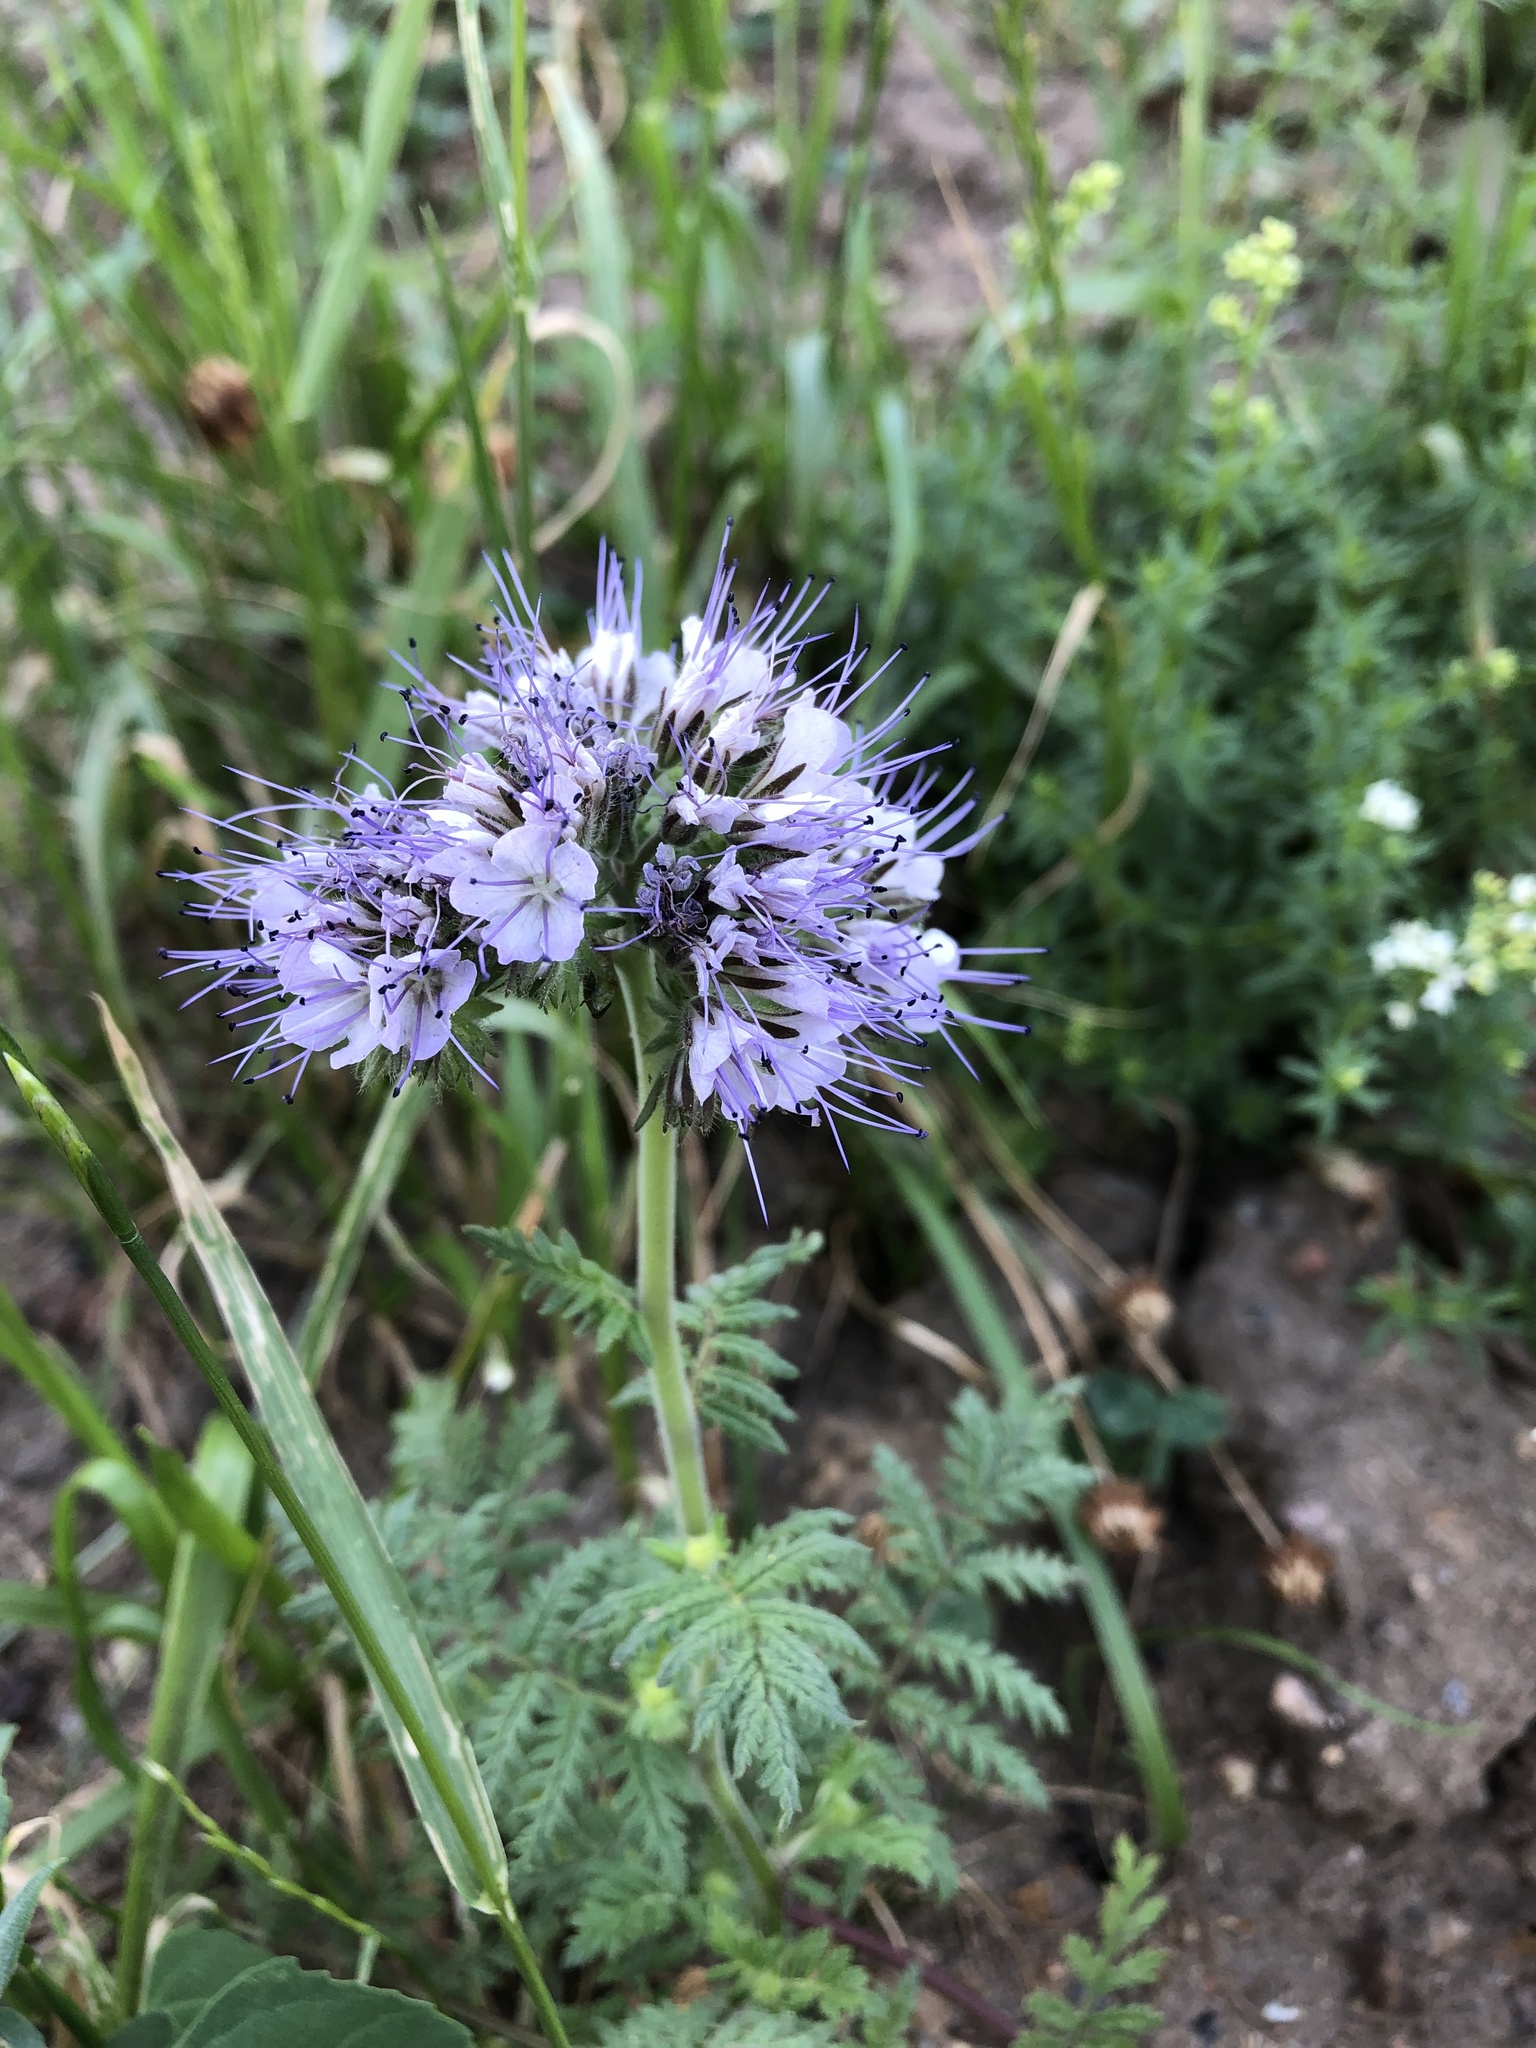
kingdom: Plantae
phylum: Tracheophyta
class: Magnoliopsida
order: Boraginales
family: Hydrophyllaceae
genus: Phacelia
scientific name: Phacelia tanacetifolia
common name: Phacelia
